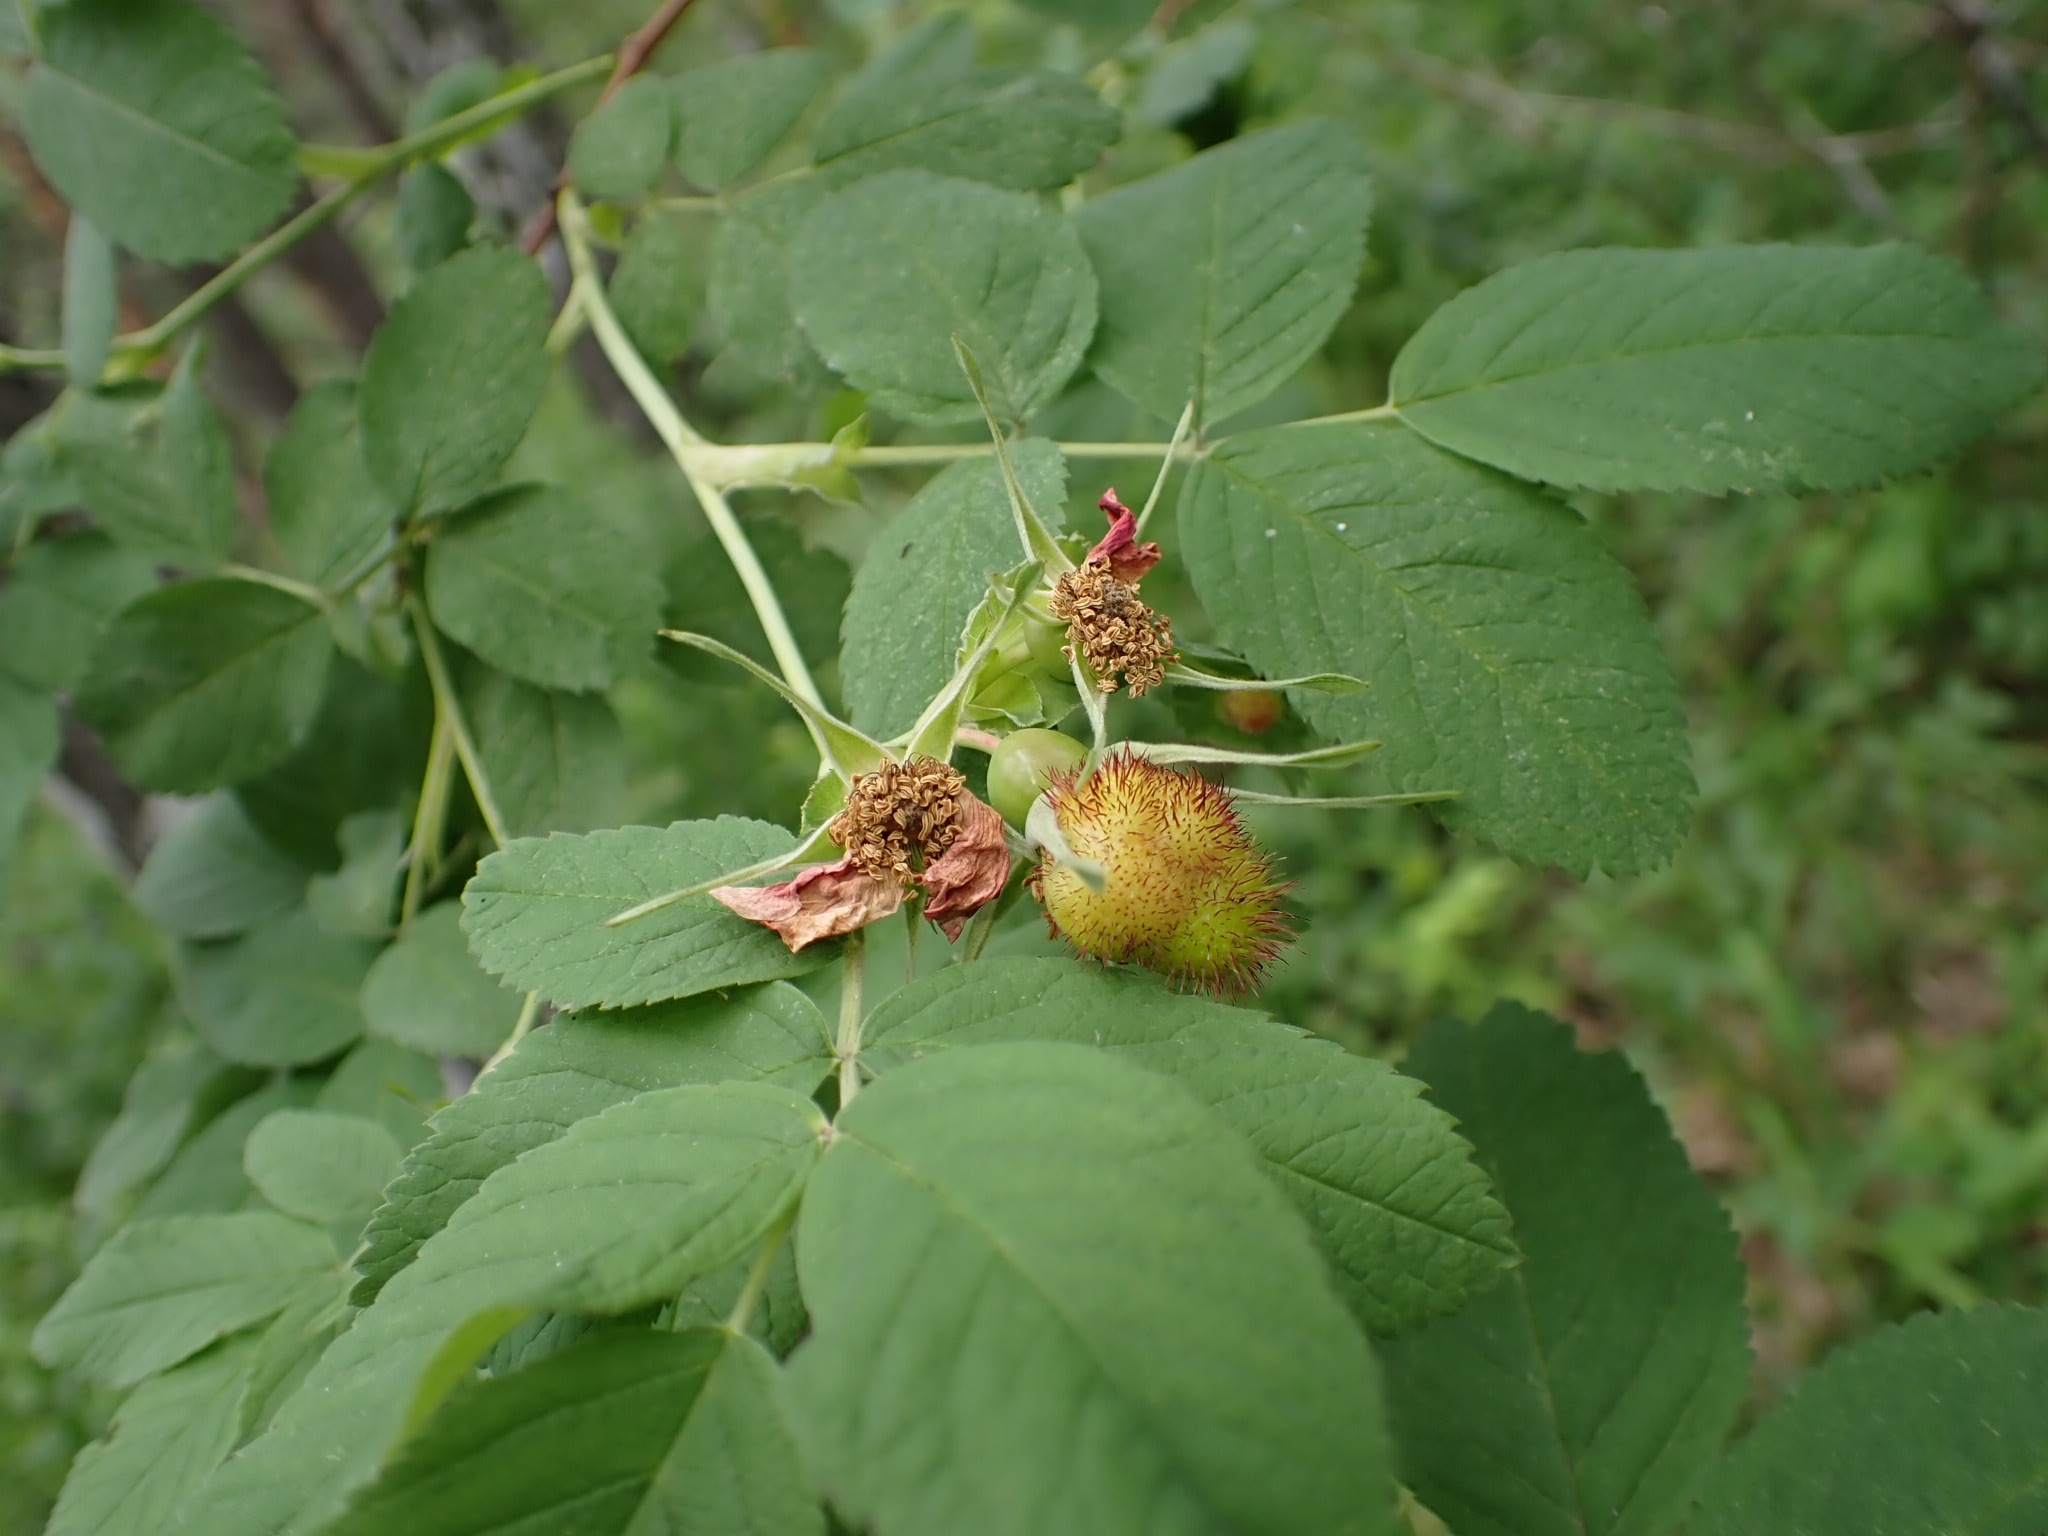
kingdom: Animalia
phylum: Arthropoda
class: Insecta
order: Hymenoptera
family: Cynipidae
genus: Diplolepis
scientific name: Diplolepis mayri
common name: Gall wasp
